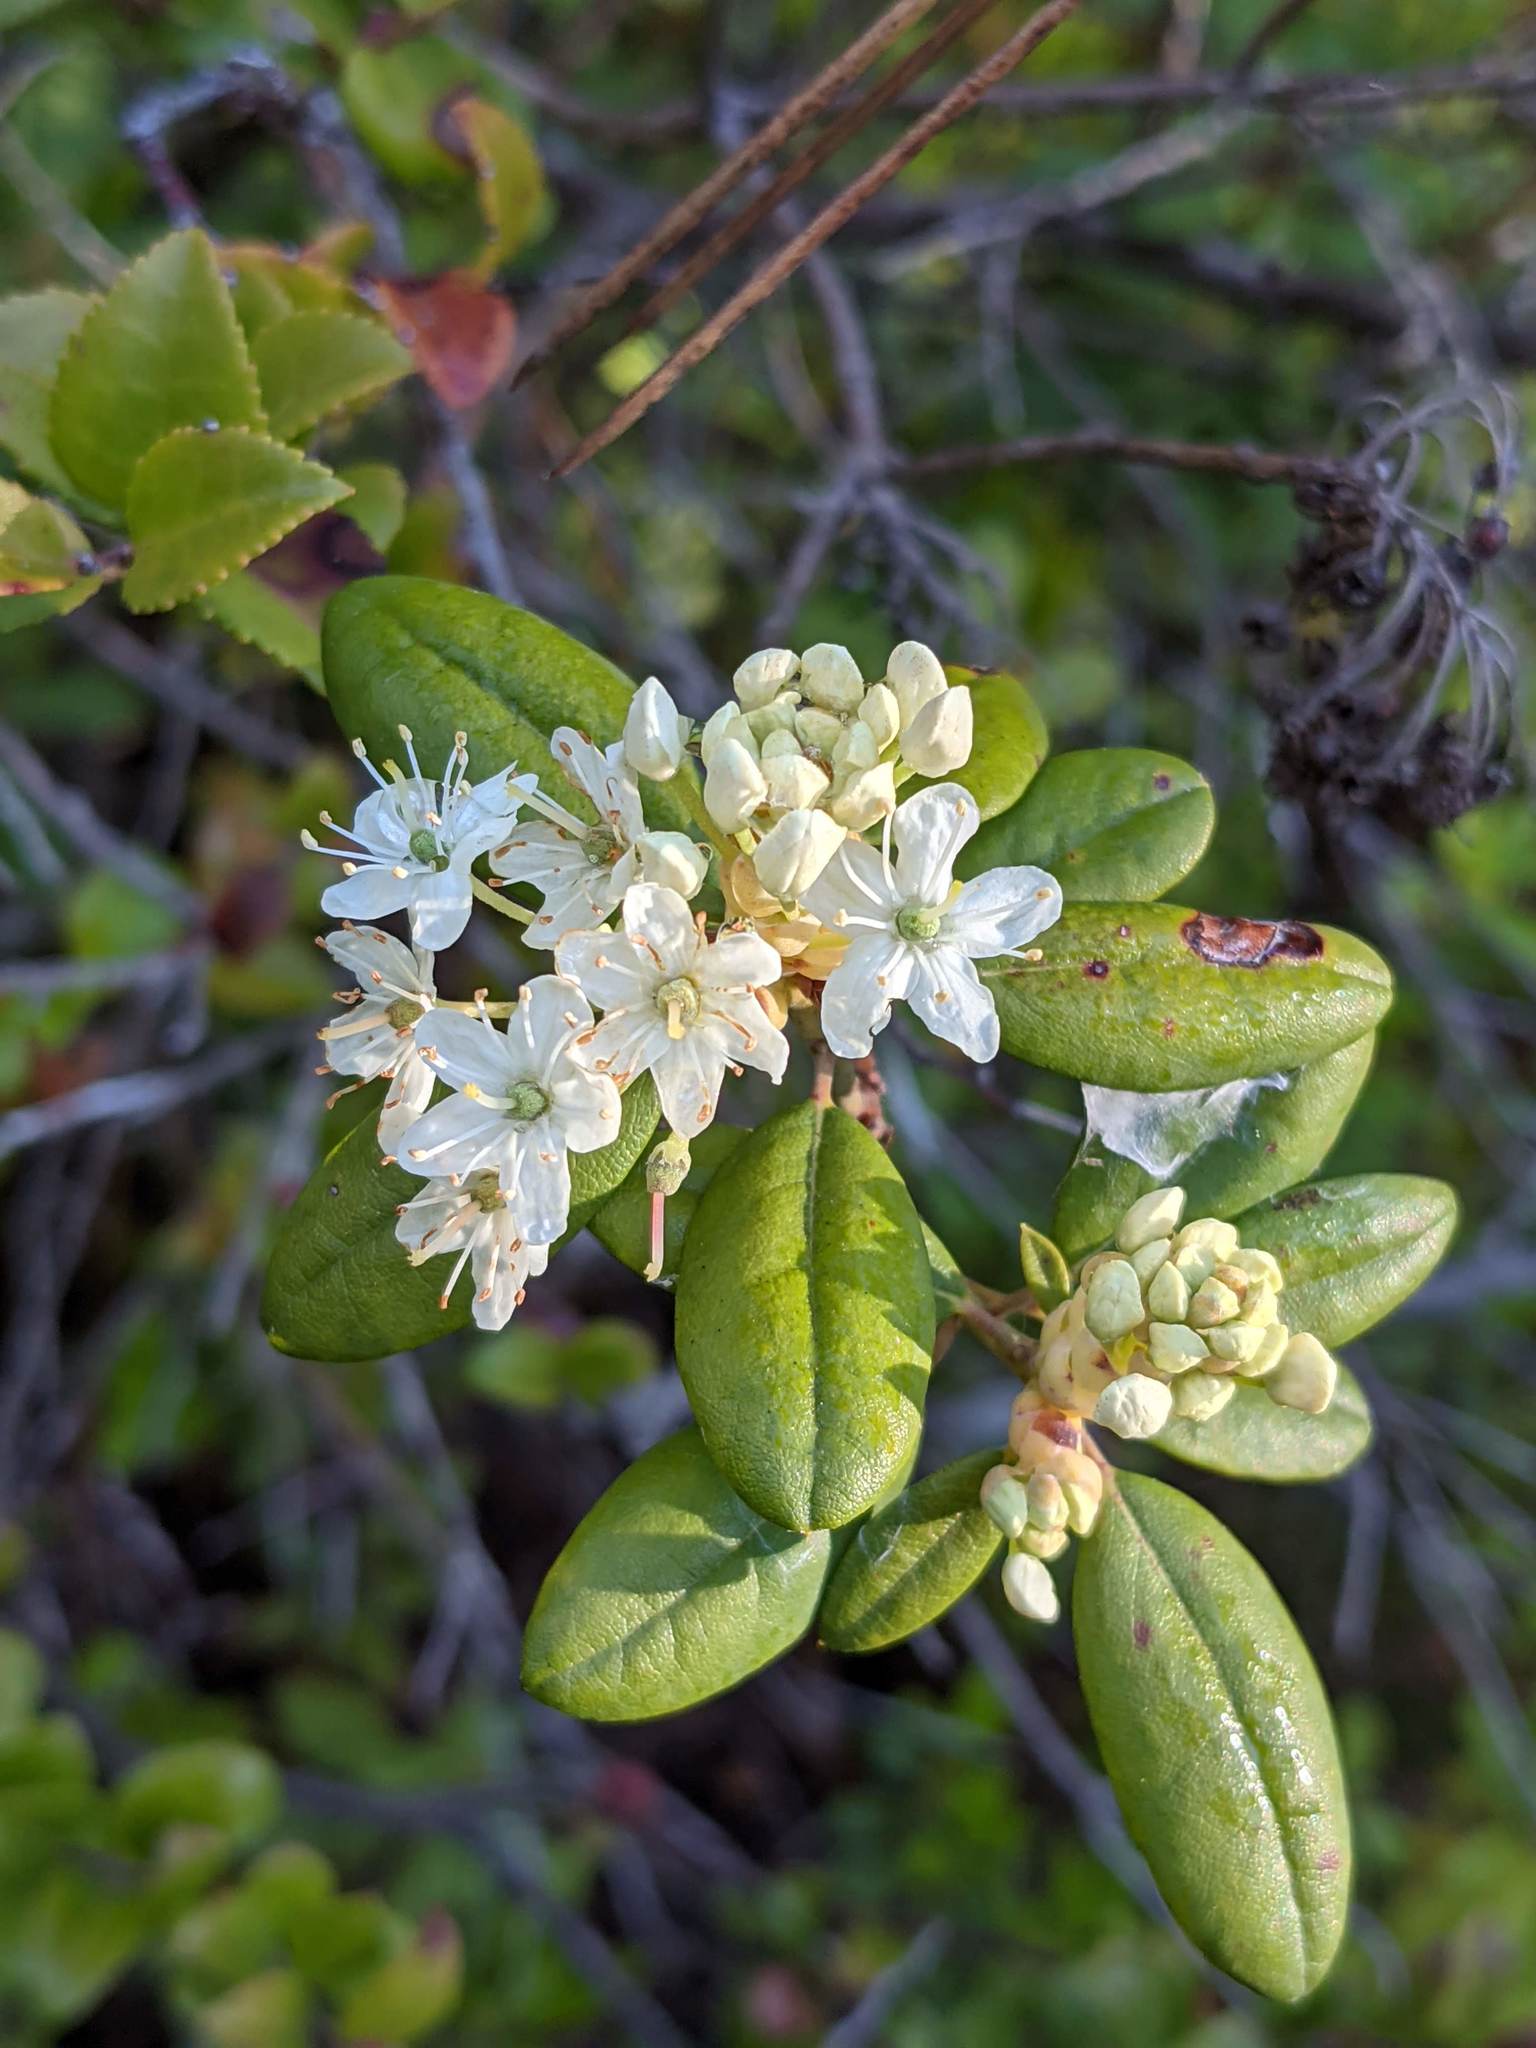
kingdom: Plantae
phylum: Tracheophyta
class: Magnoliopsida
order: Ericales
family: Ericaceae
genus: Rhododendron
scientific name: Rhododendron columbianum
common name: Western labrador tea
